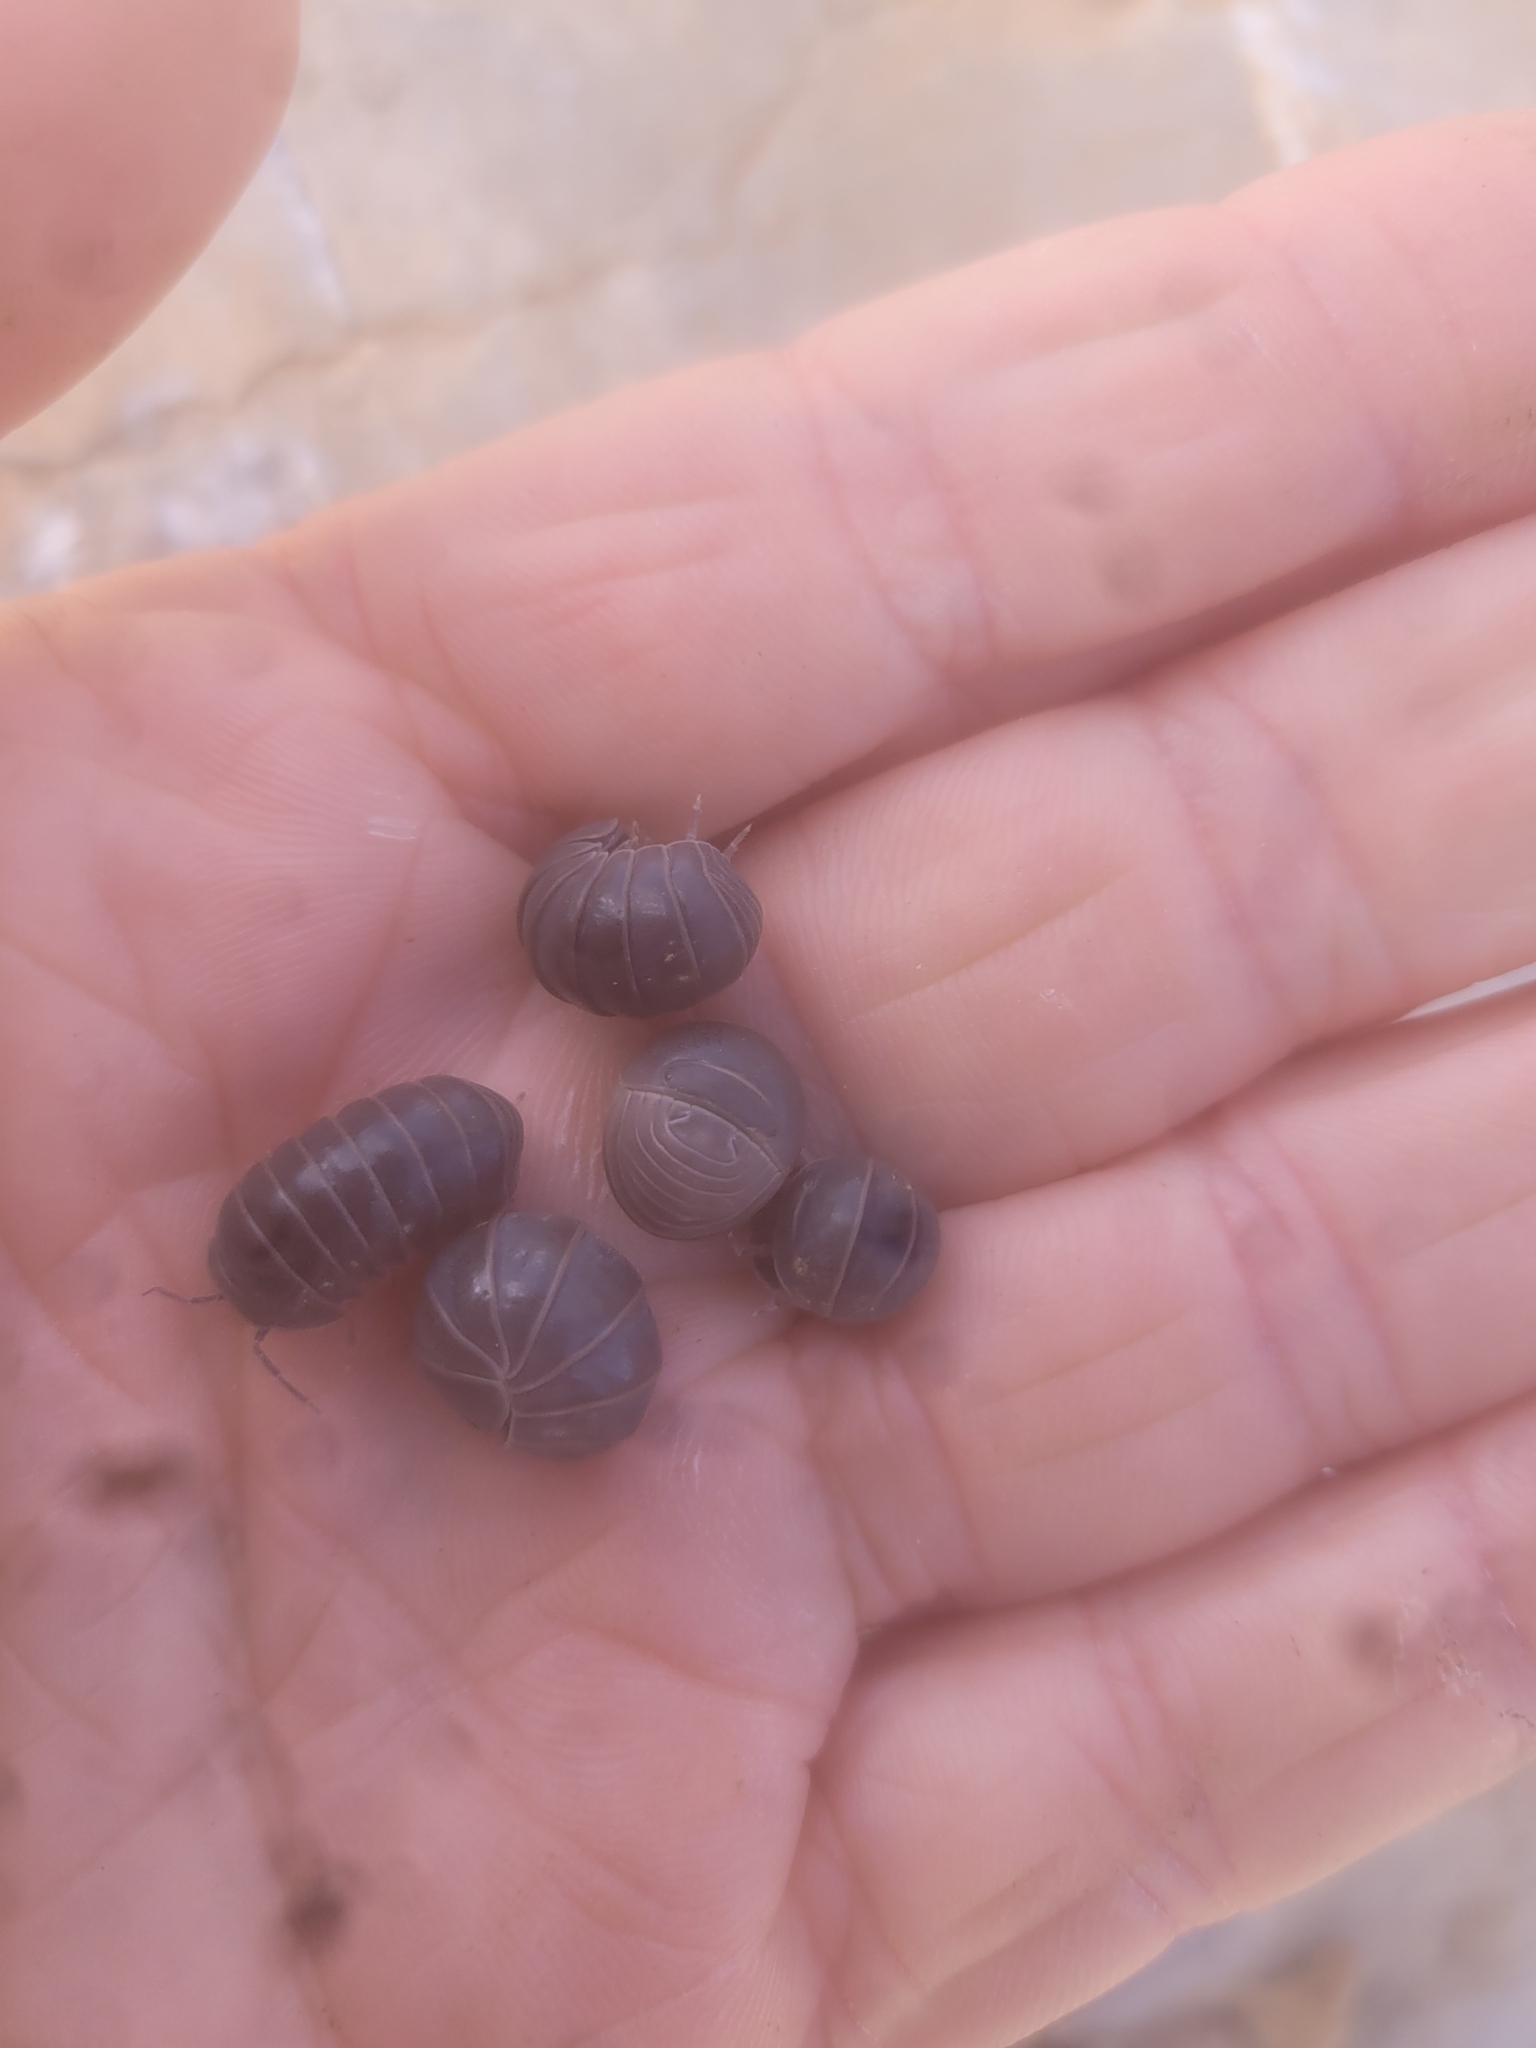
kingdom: Animalia
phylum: Arthropoda
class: Malacostraca
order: Isopoda
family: Armadillidae
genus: Armadillo
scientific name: Armadillo officinalis
